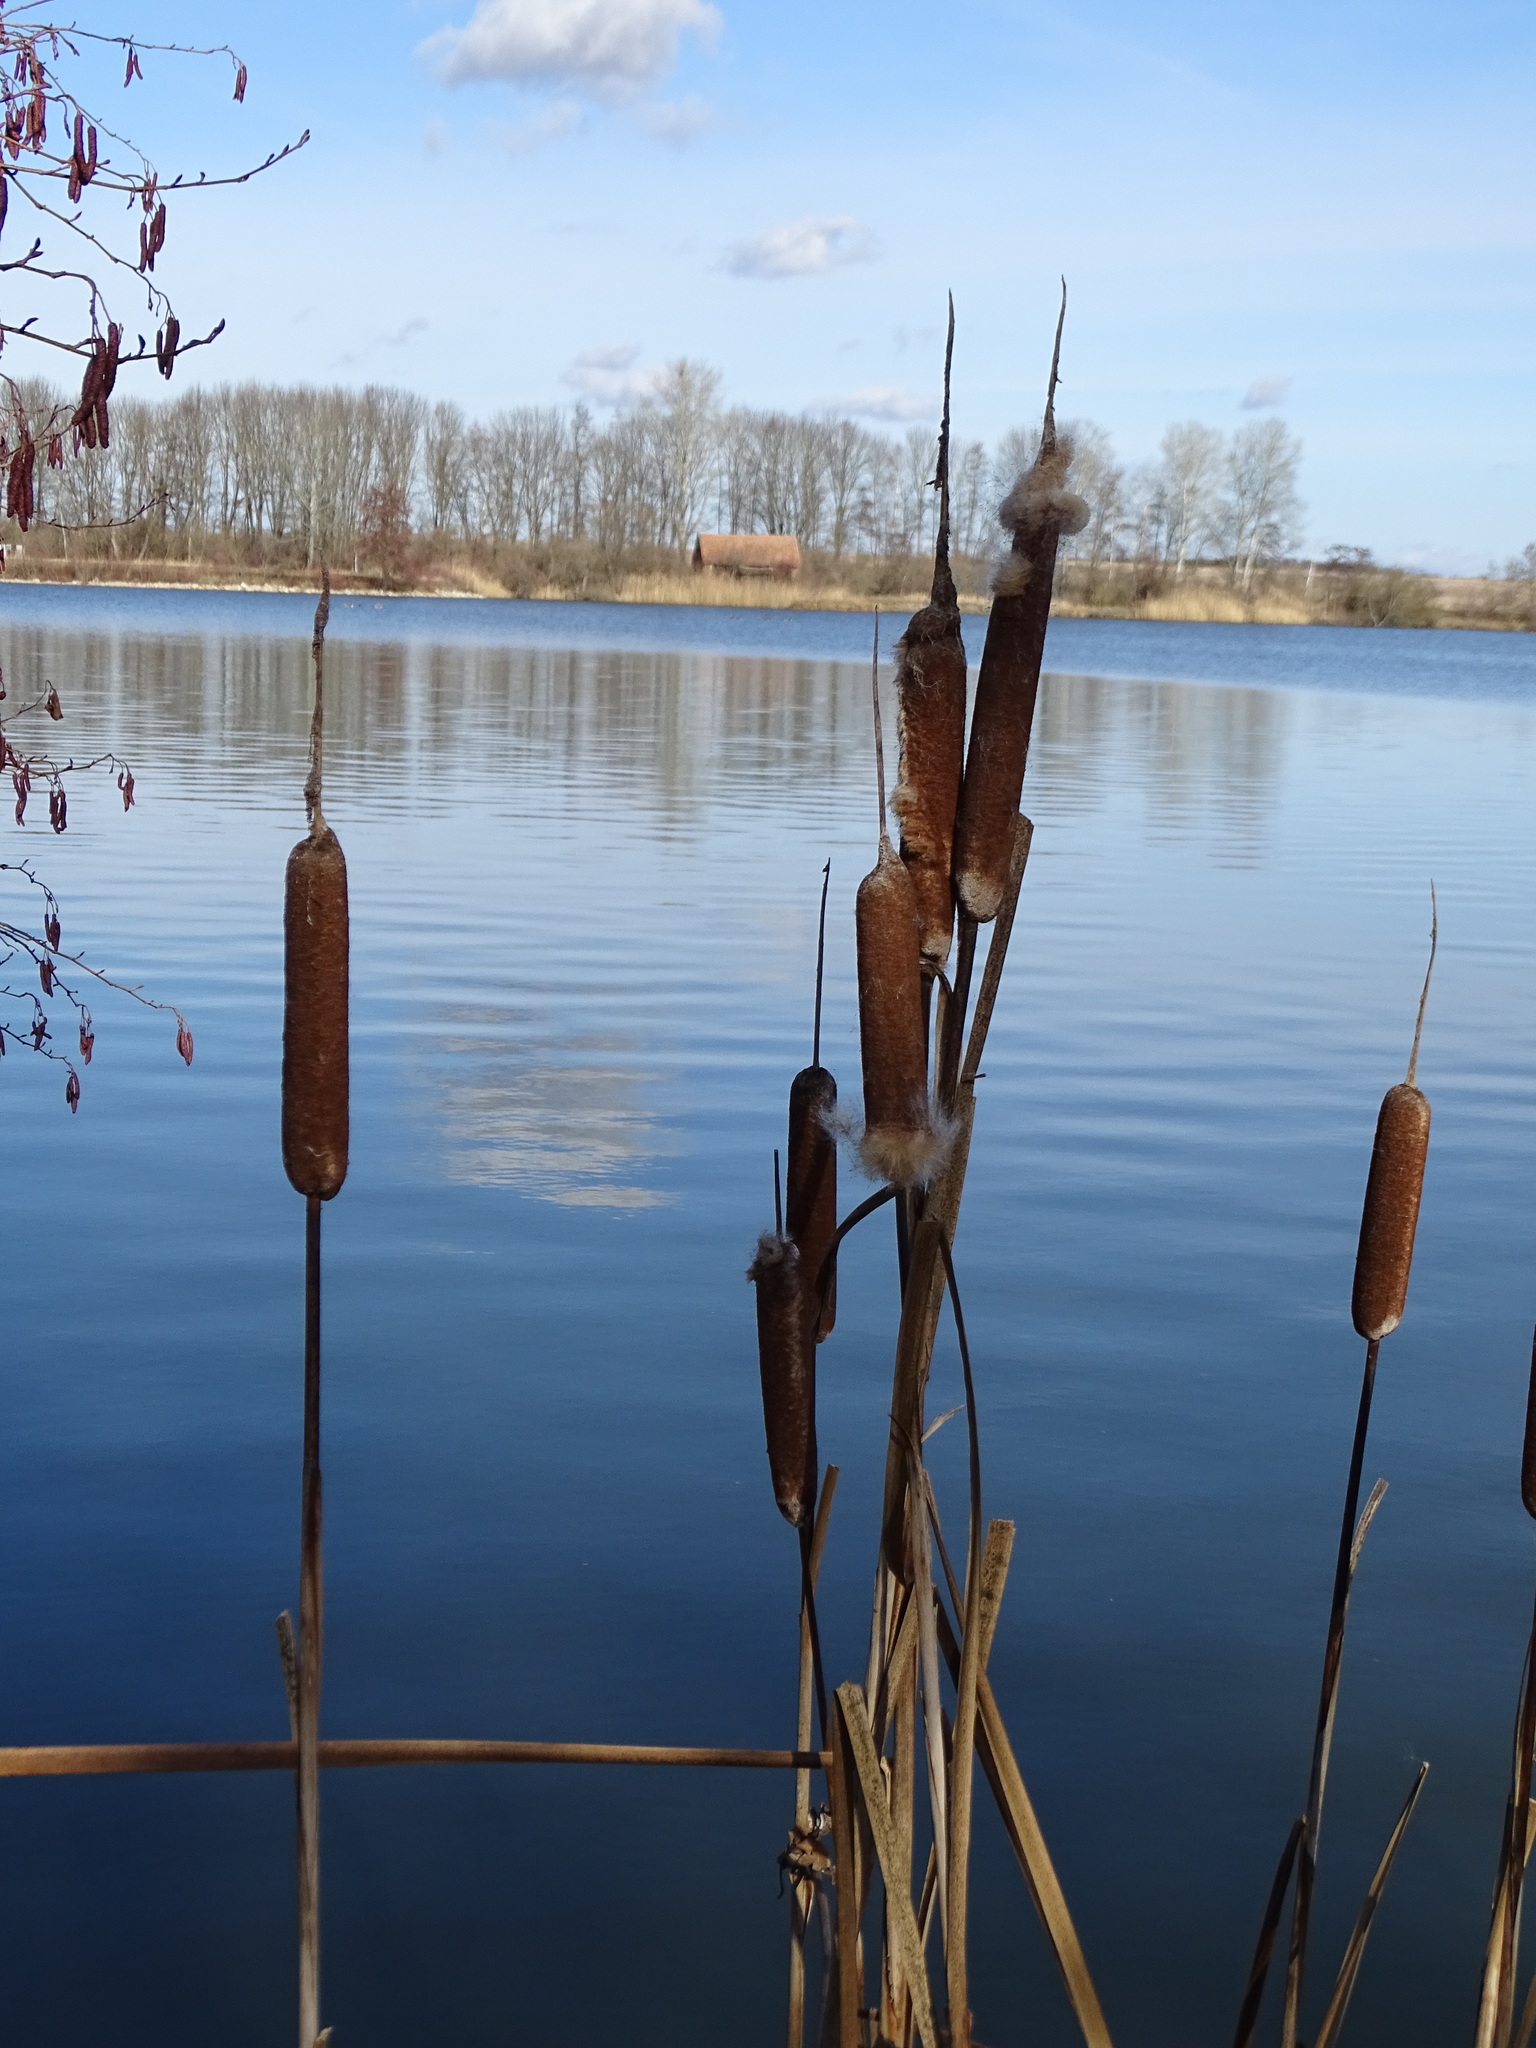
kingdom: Plantae
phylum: Tracheophyta
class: Liliopsida
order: Poales
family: Typhaceae
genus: Typha
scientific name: Typha latifolia
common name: Broadleaf cattail
